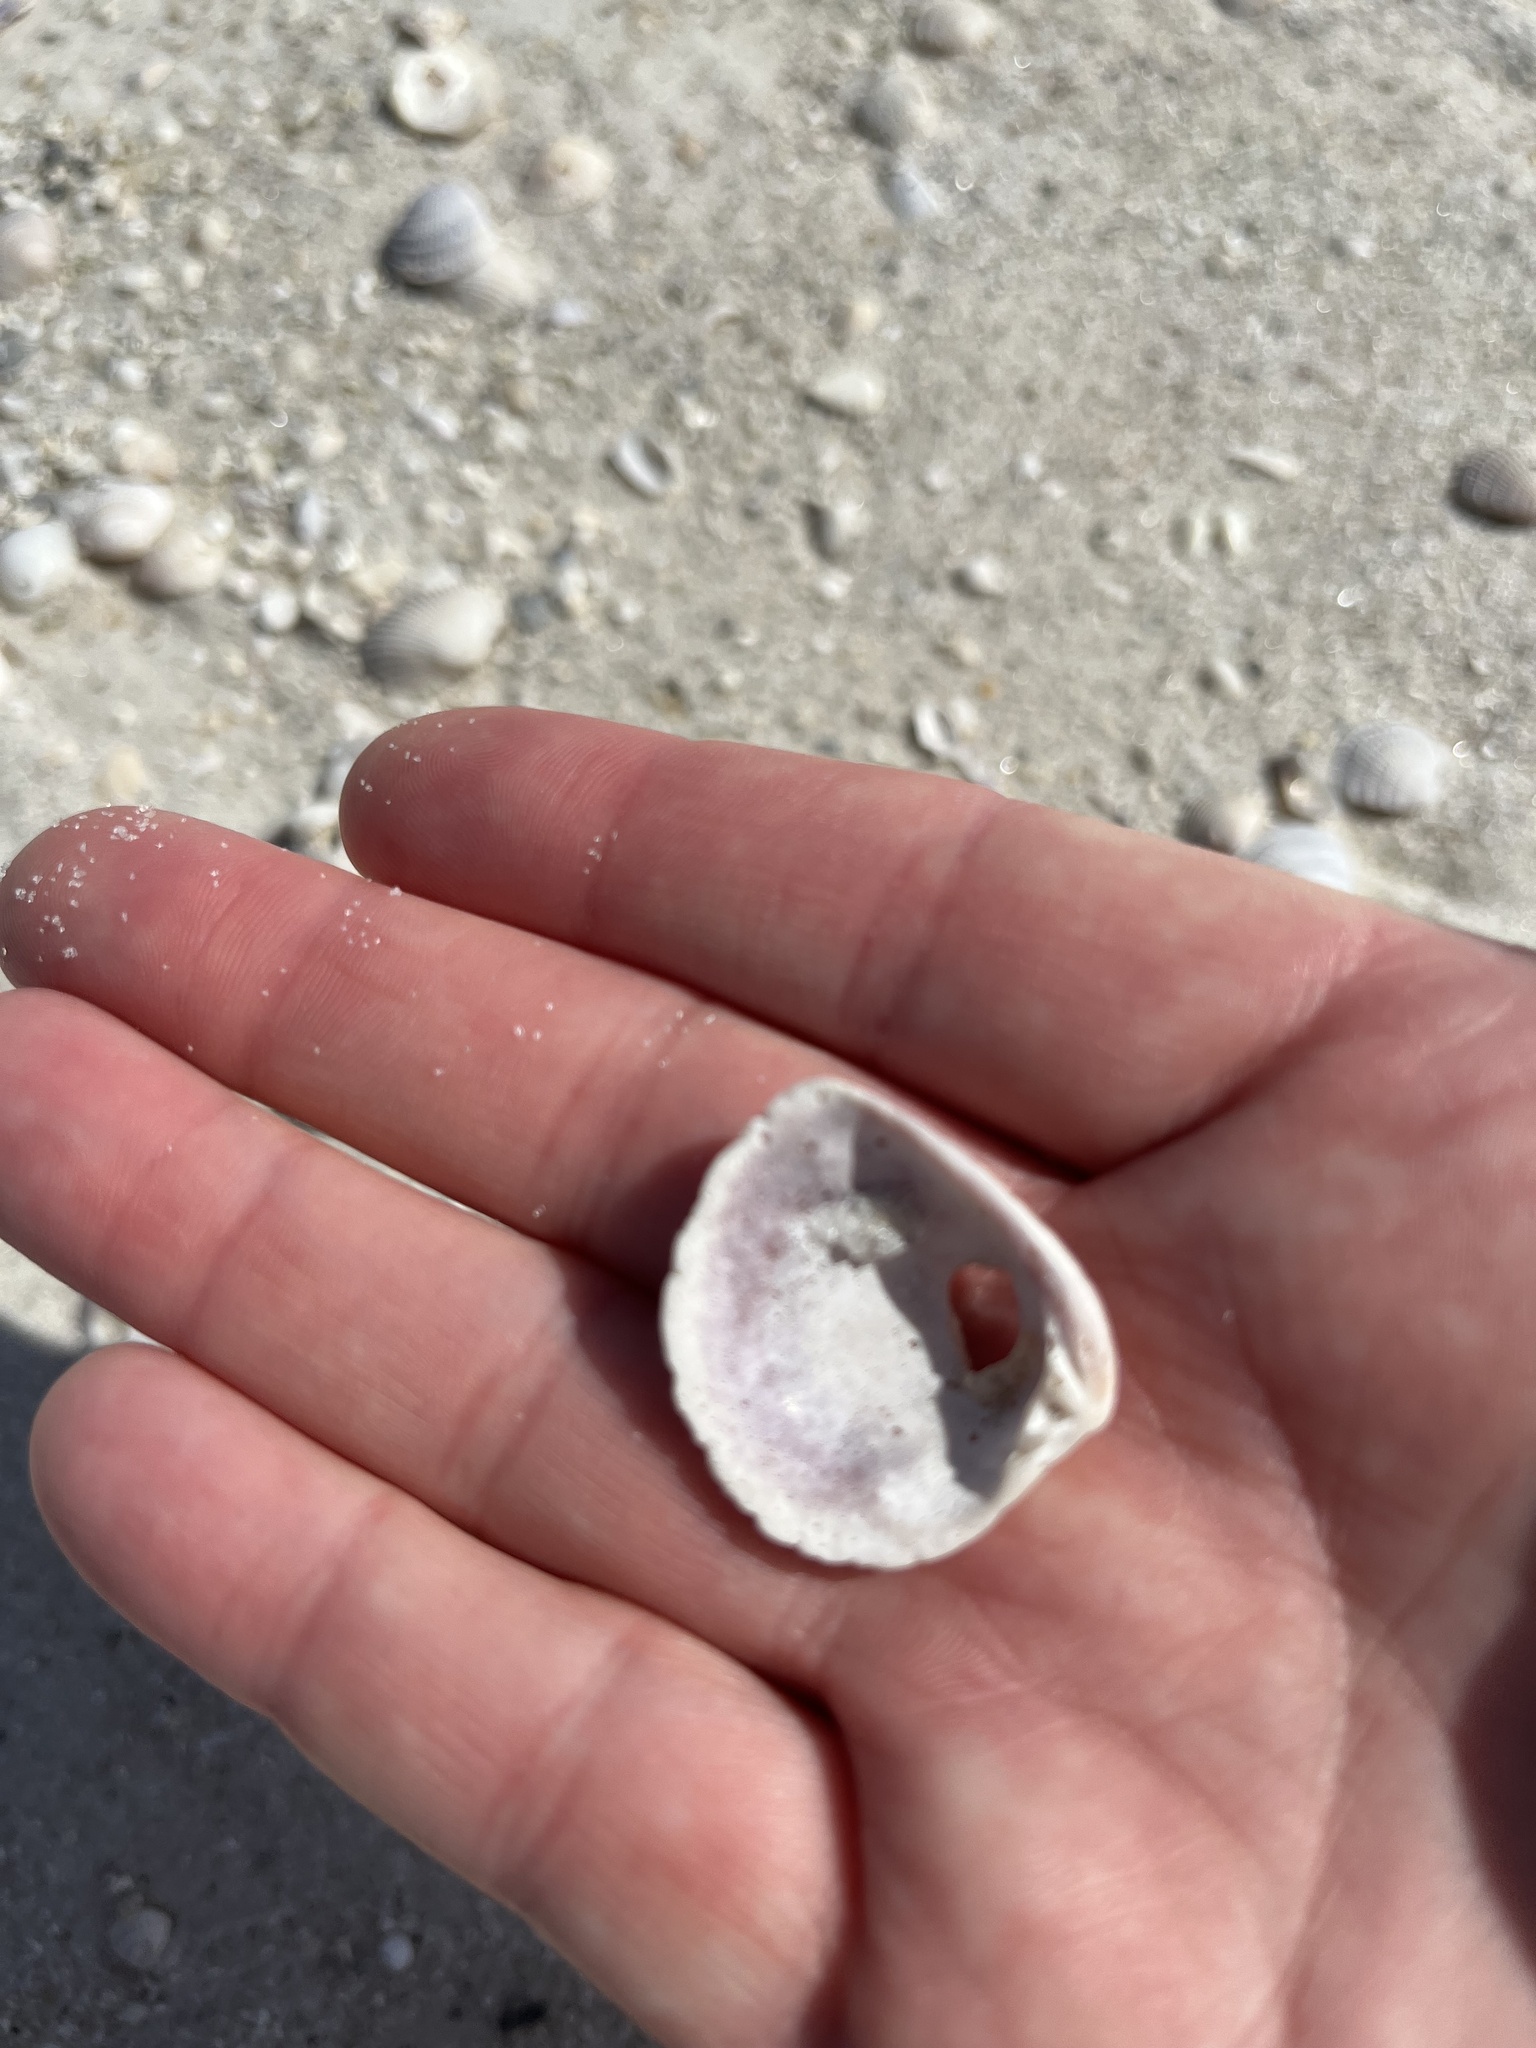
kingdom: Animalia
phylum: Mollusca
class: Bivalvia
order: Venerida
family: Veneridae
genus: Chione
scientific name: Chione elevata
